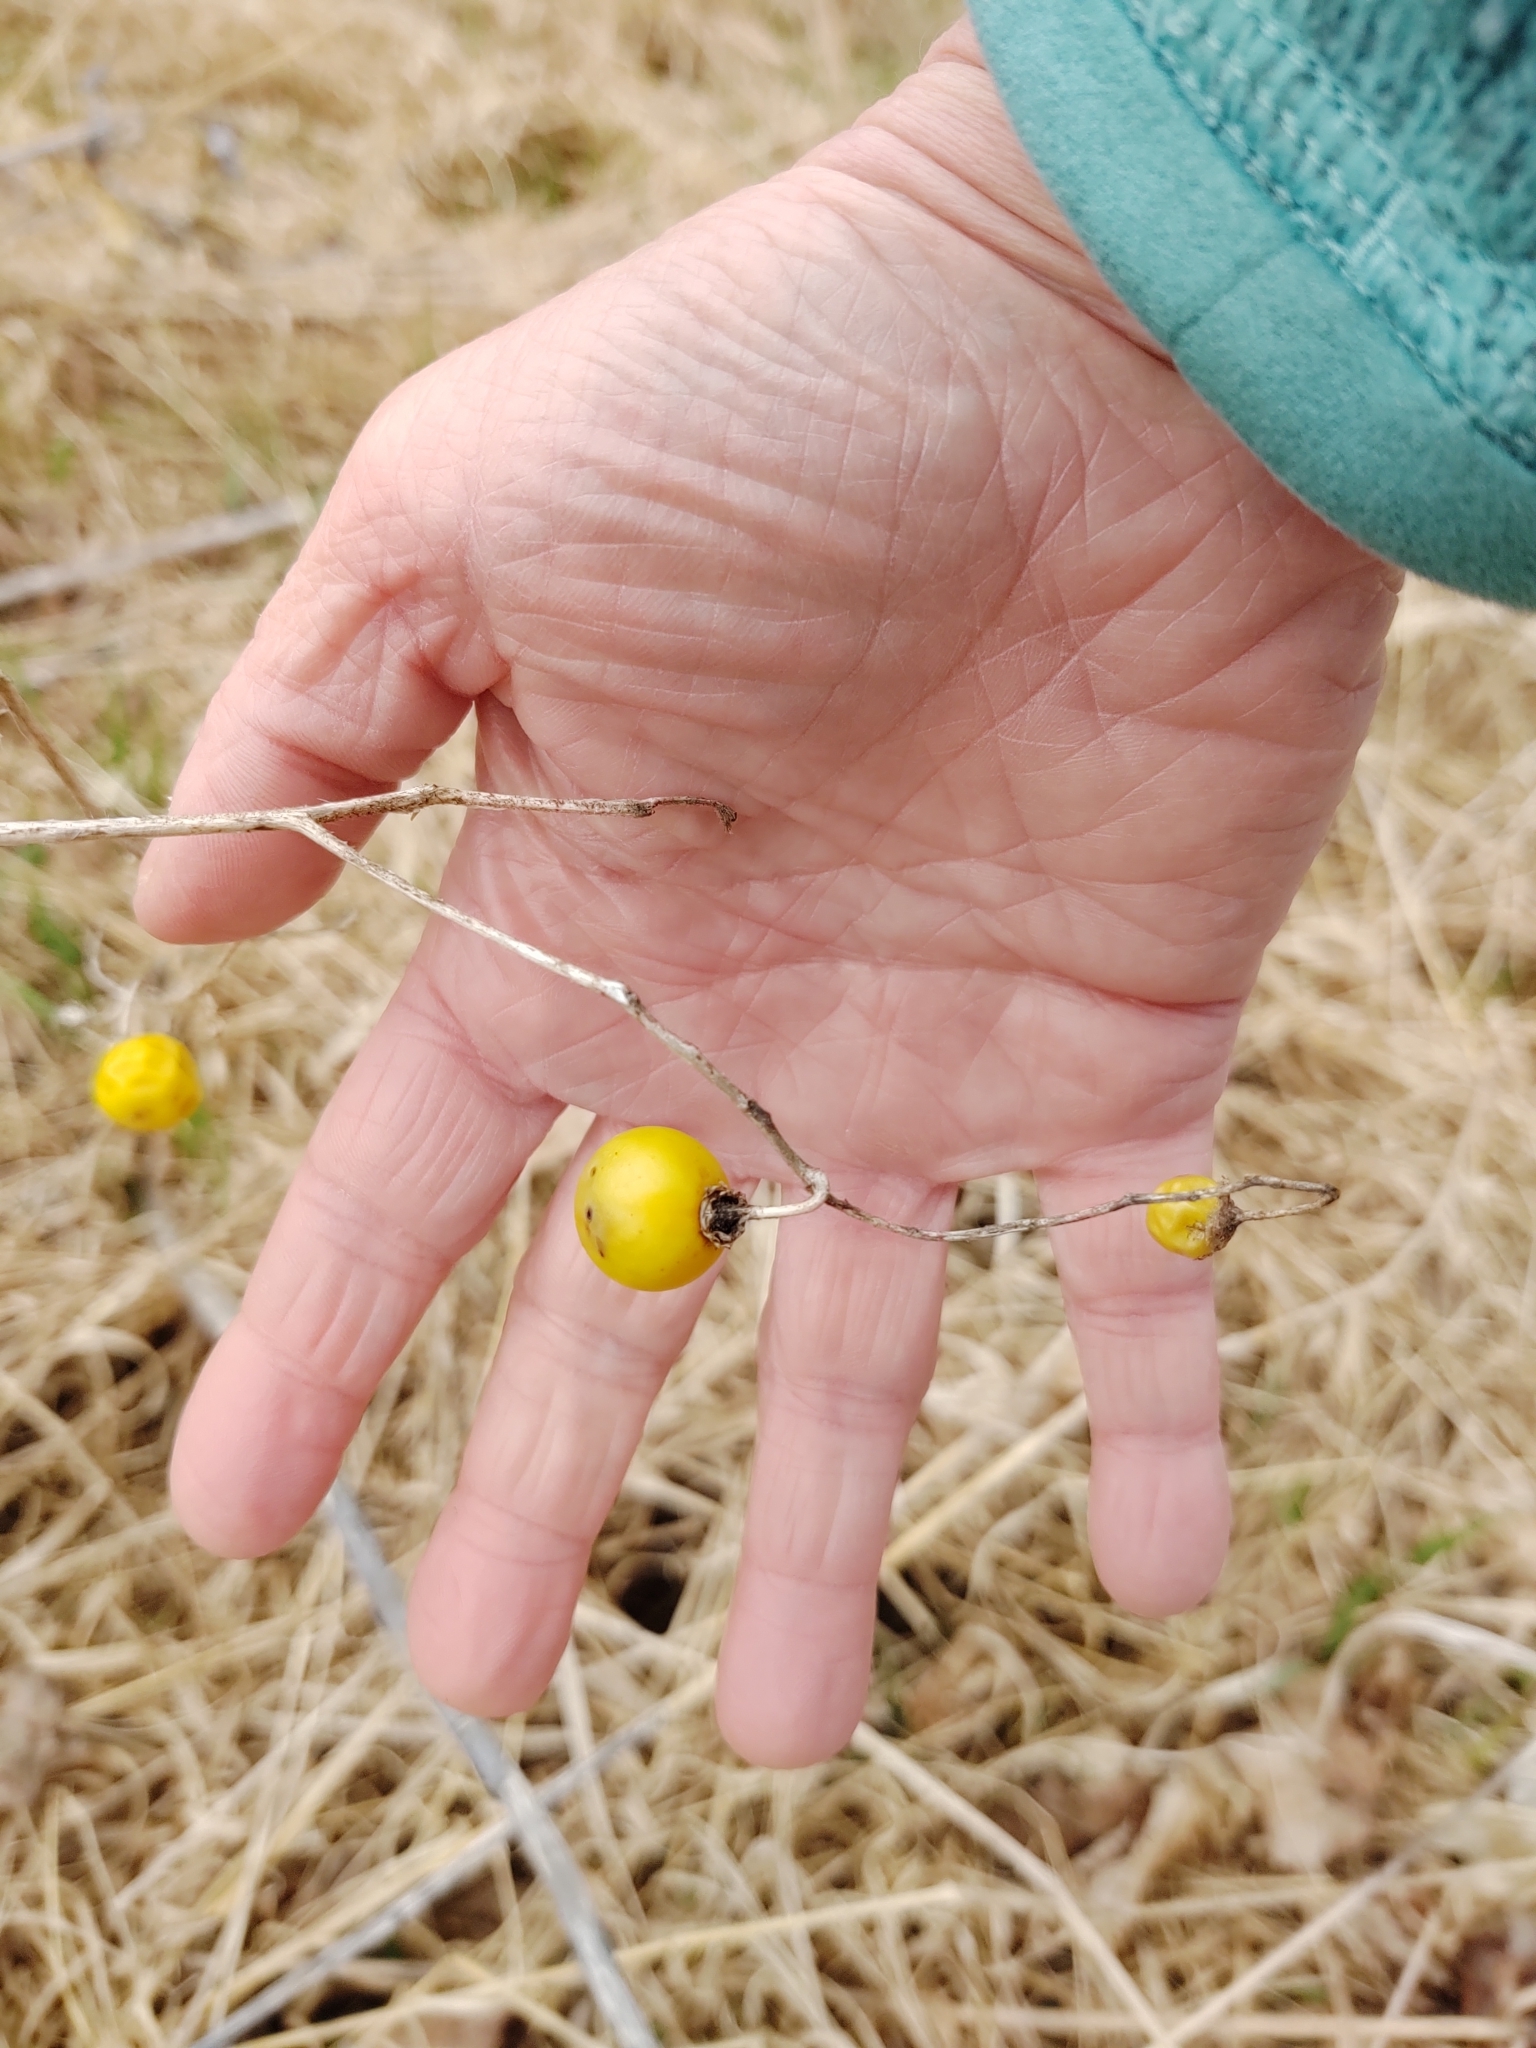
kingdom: Plantae
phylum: Tracheophyta
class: Magnoliopsida
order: Solanales
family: Solanaceae
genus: Solanum
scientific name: Solanum carolinense
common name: Horse-nettle
